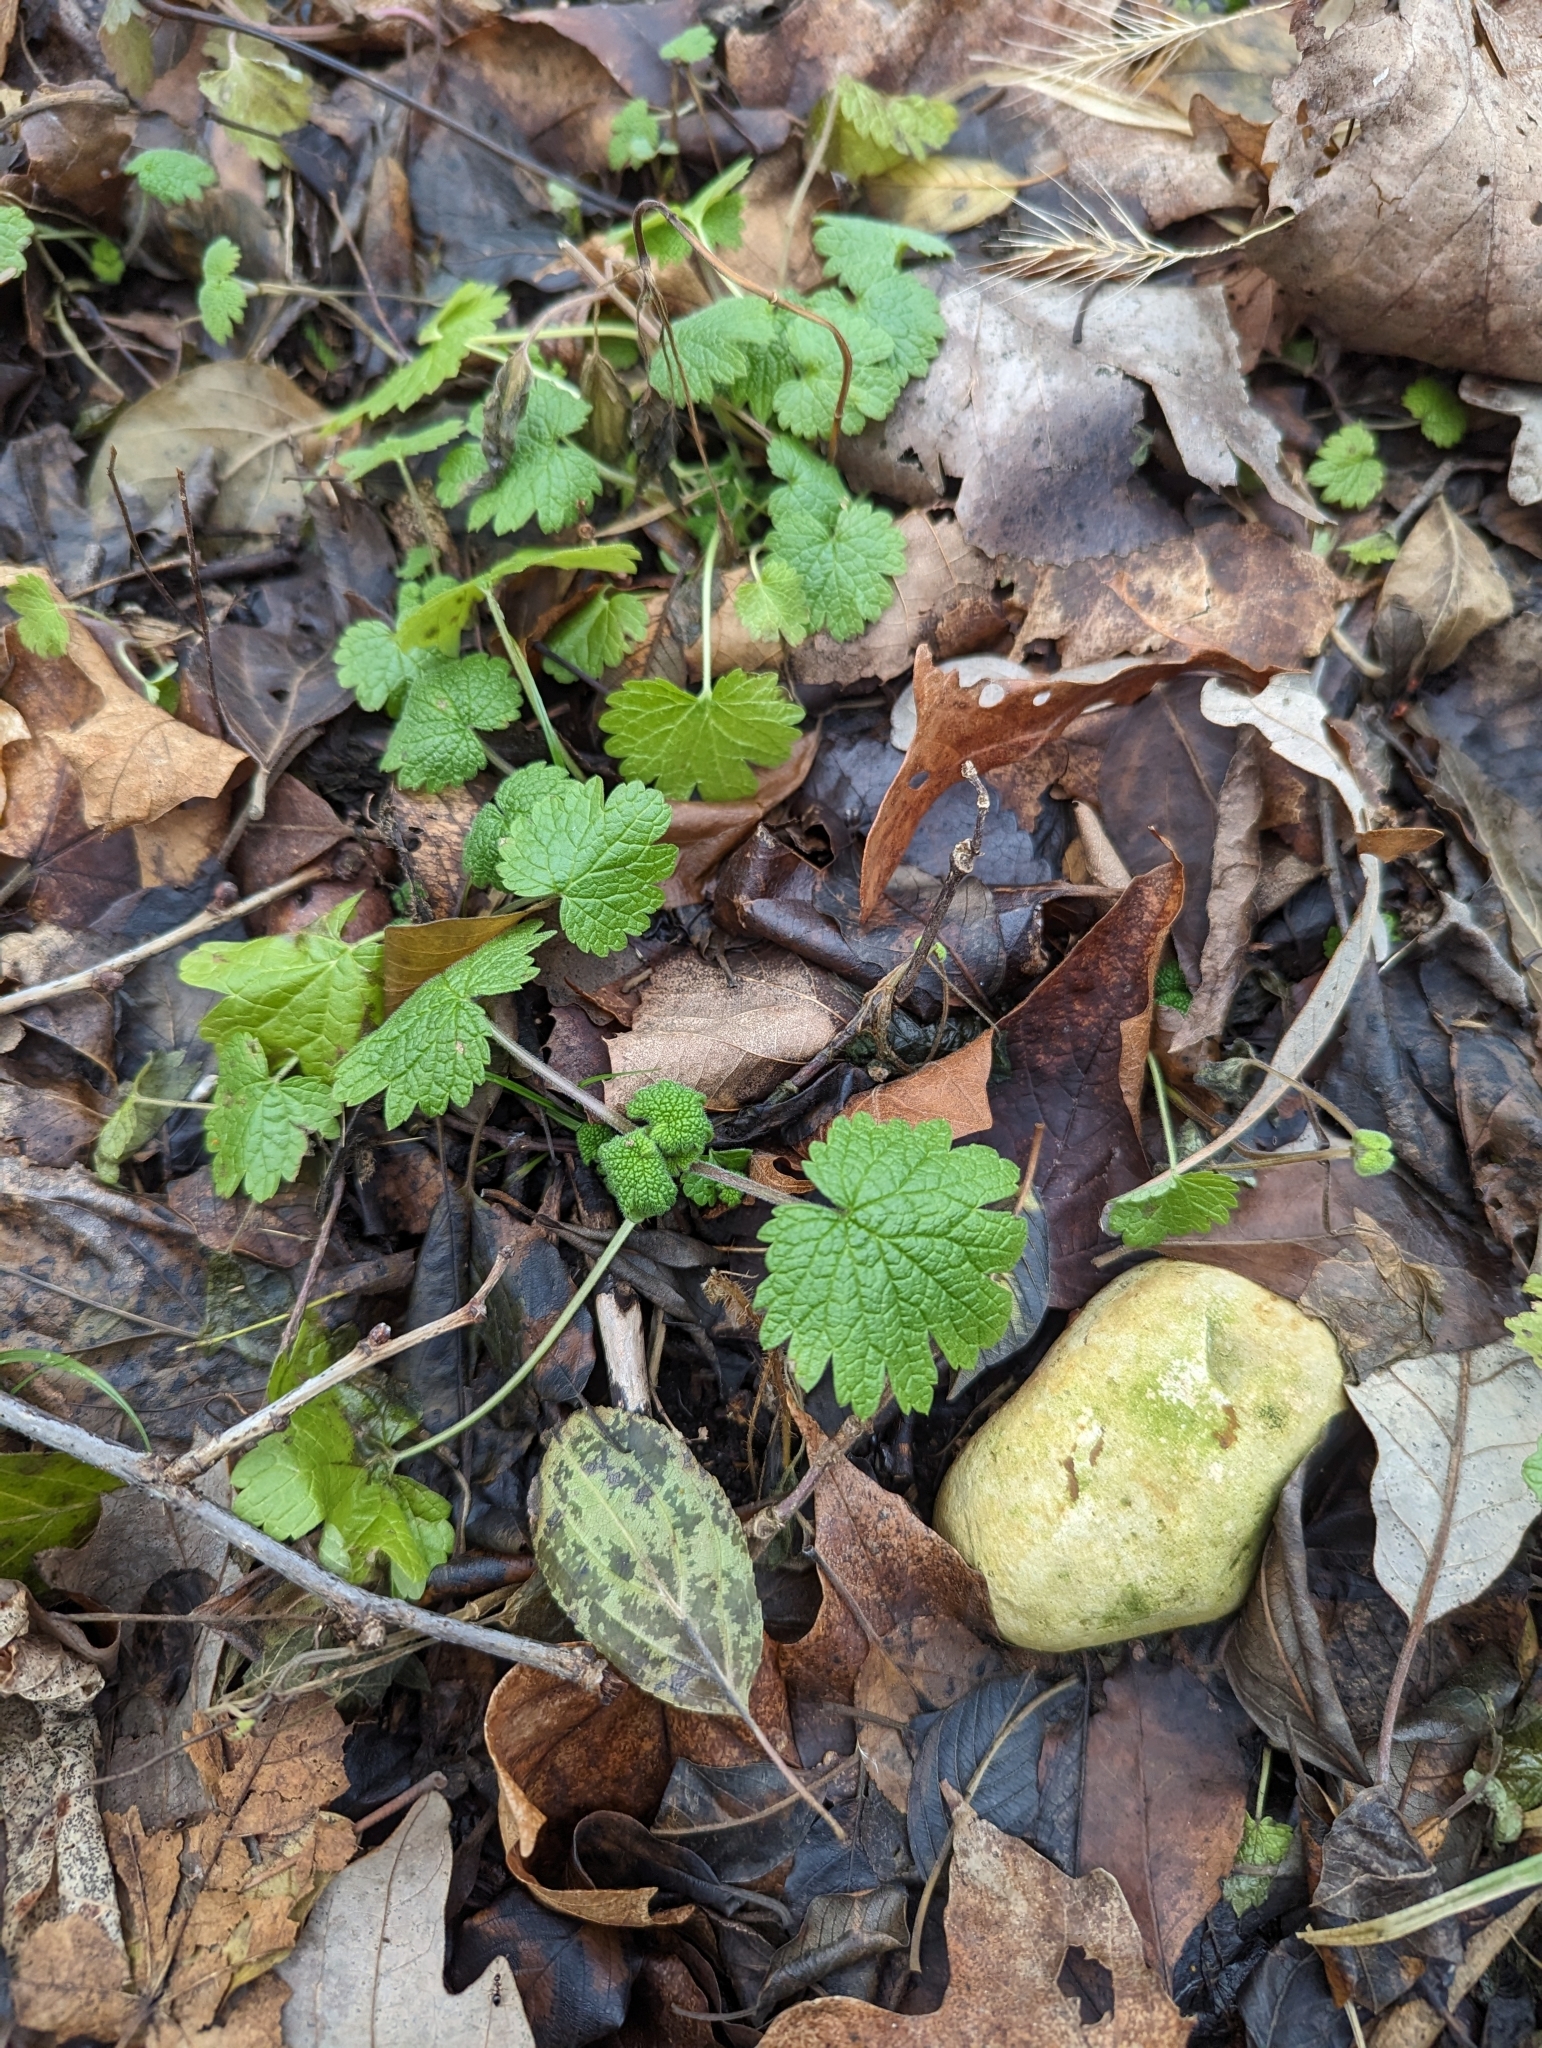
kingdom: Plantae
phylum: Tracheophyta
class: Magnoliopsida
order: Lamiales
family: Lamiaceae
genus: Leonurus
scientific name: Leonurus cardiaca
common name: Motherwort
